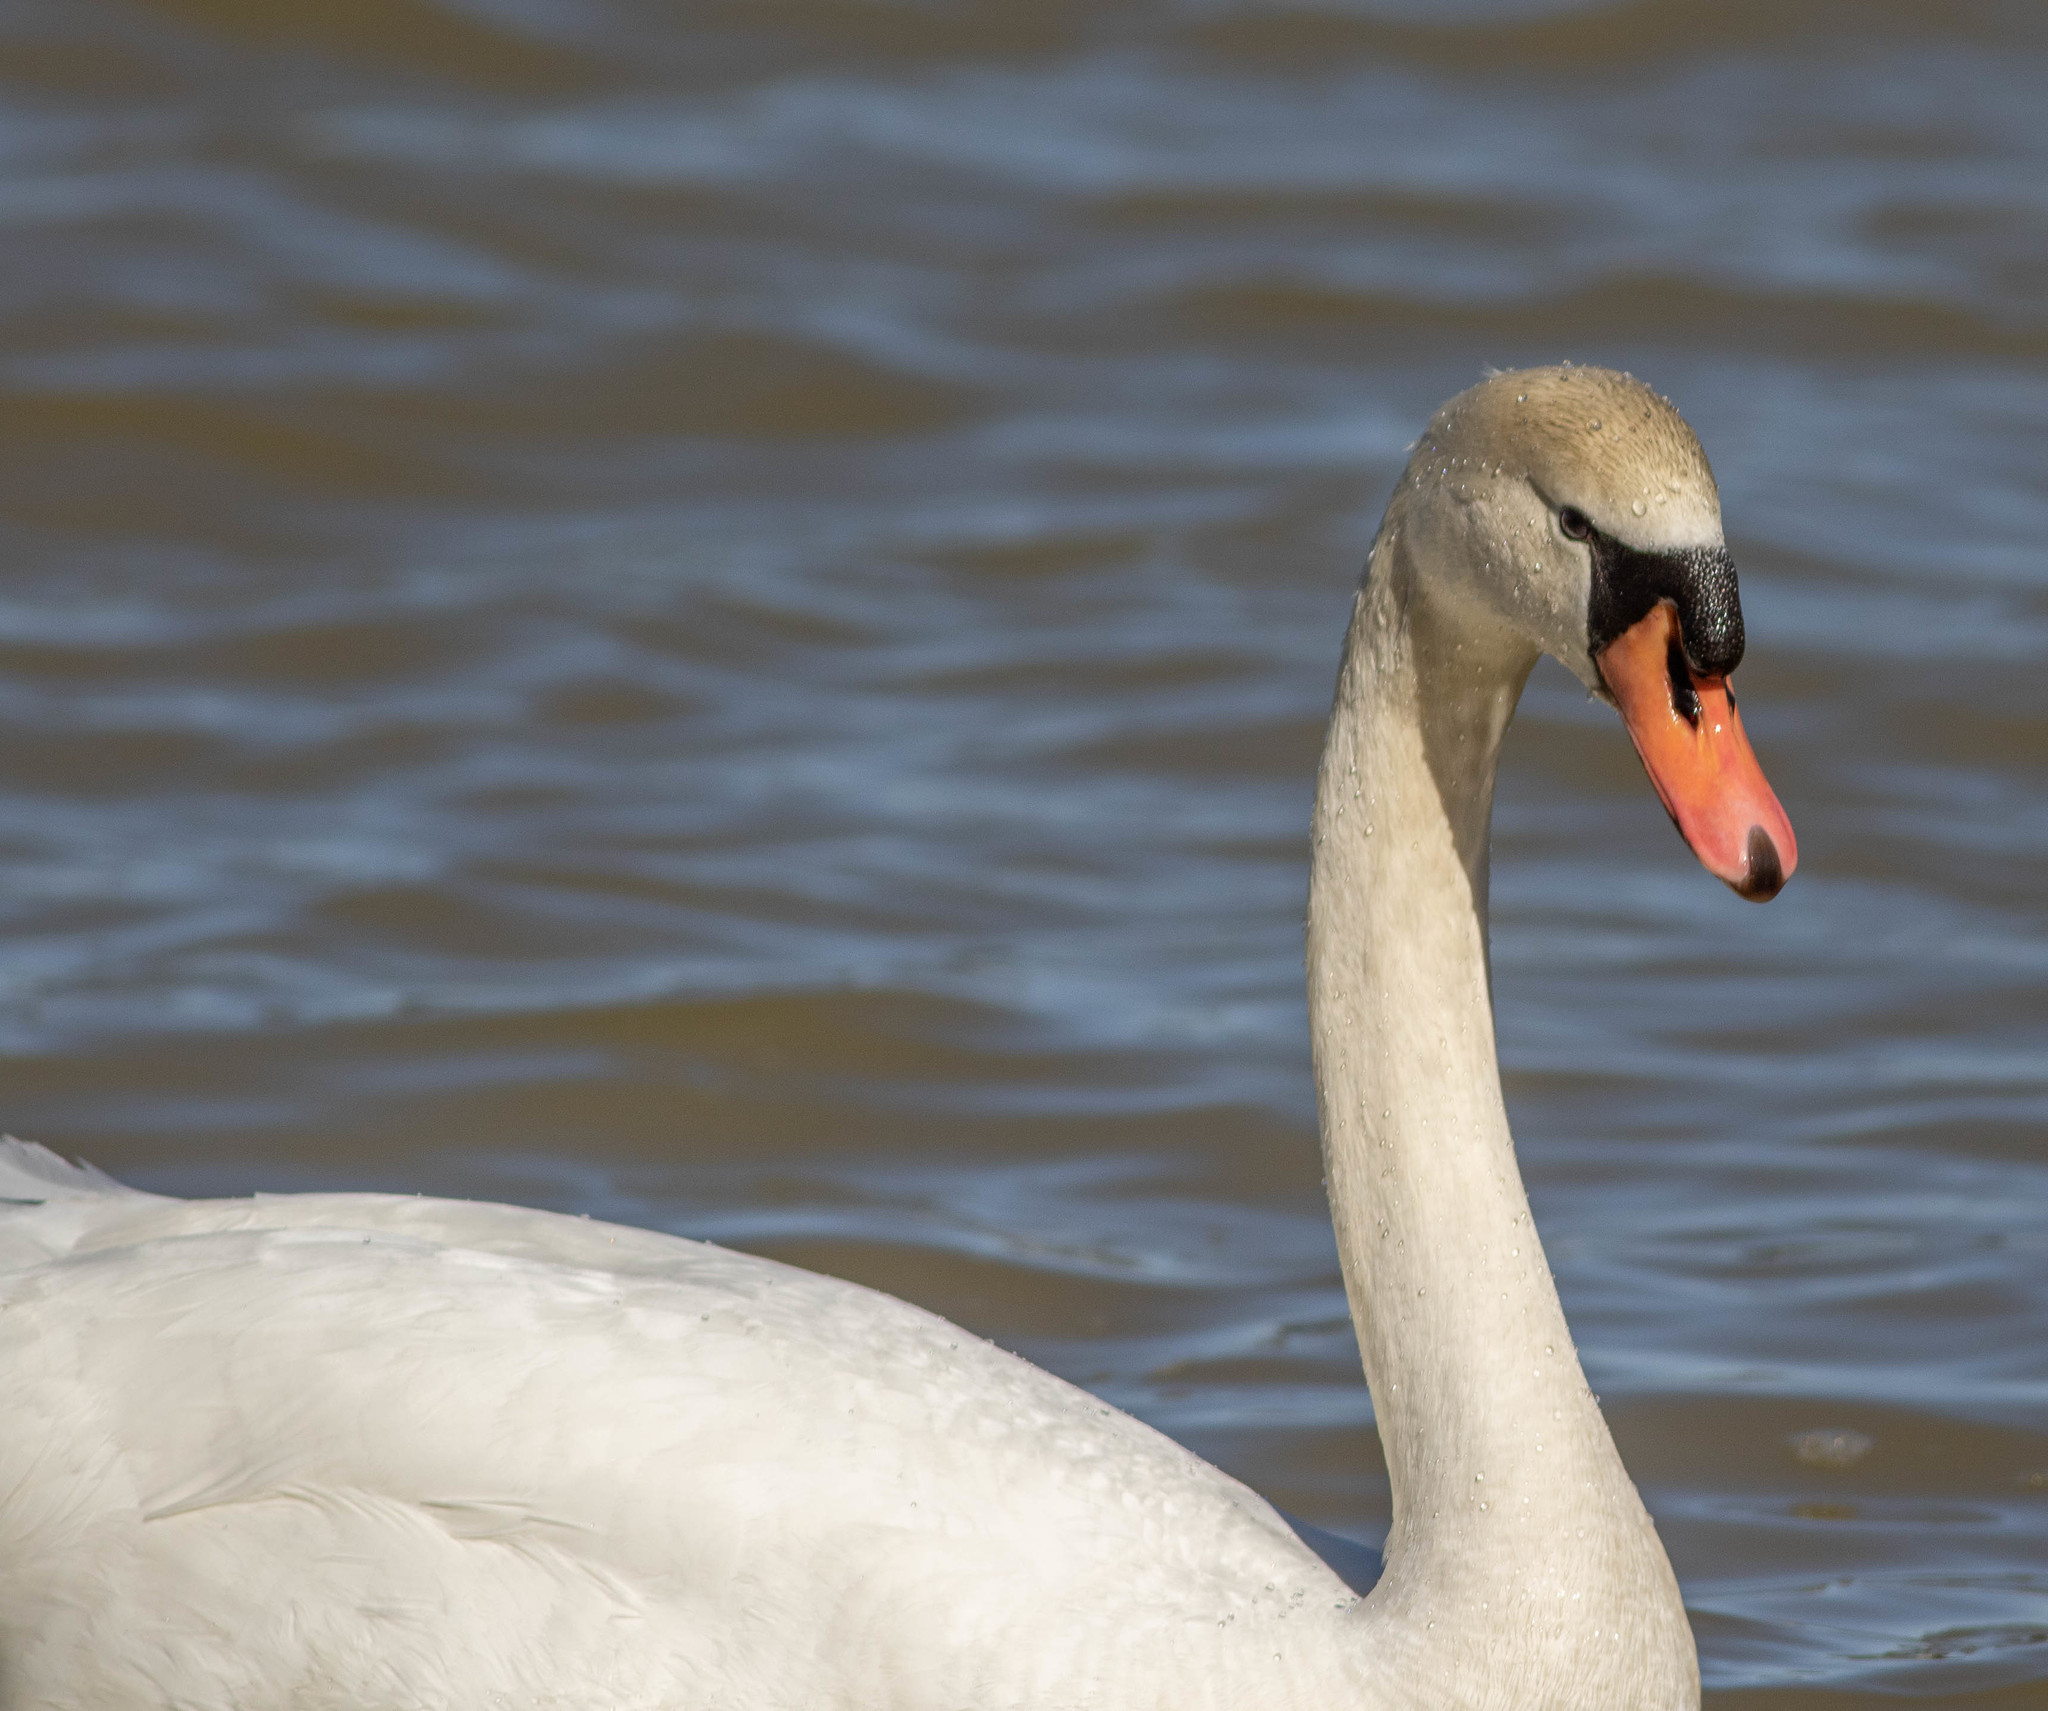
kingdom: Animalia
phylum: Chordata
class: Aves
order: Anseriformes
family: Anatidae
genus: Cygnus
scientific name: Cygnus olor
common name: Mute swan
